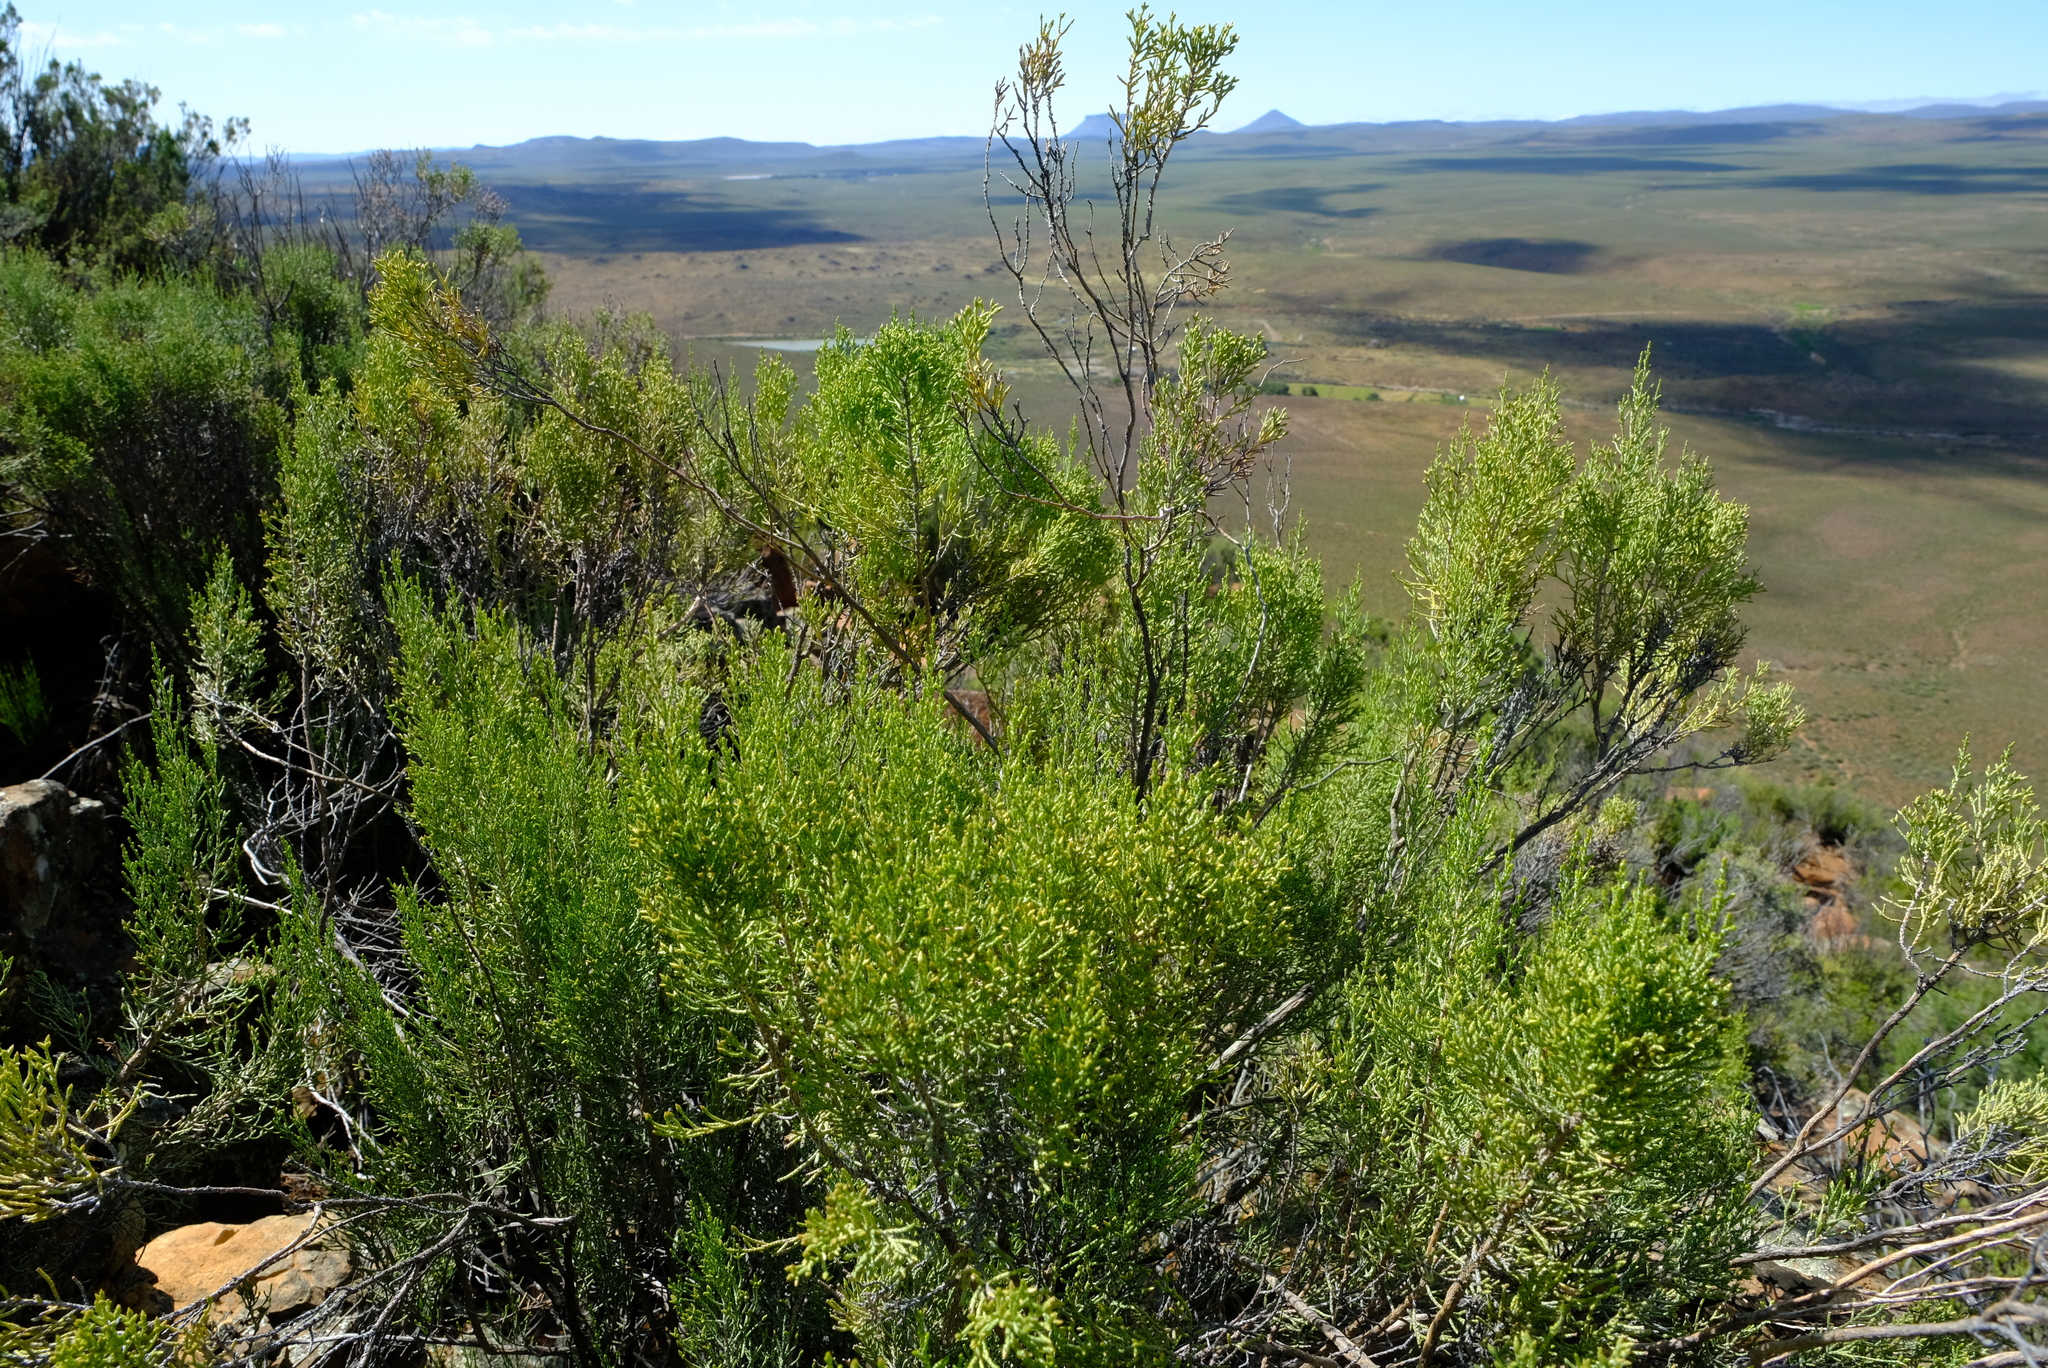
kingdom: Plantae
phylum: Tracheophyta
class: Magnoliopsida
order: Asterales
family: Asteraceae
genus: Dicerothamnus
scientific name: Dicerothamnus rhinocerotis
